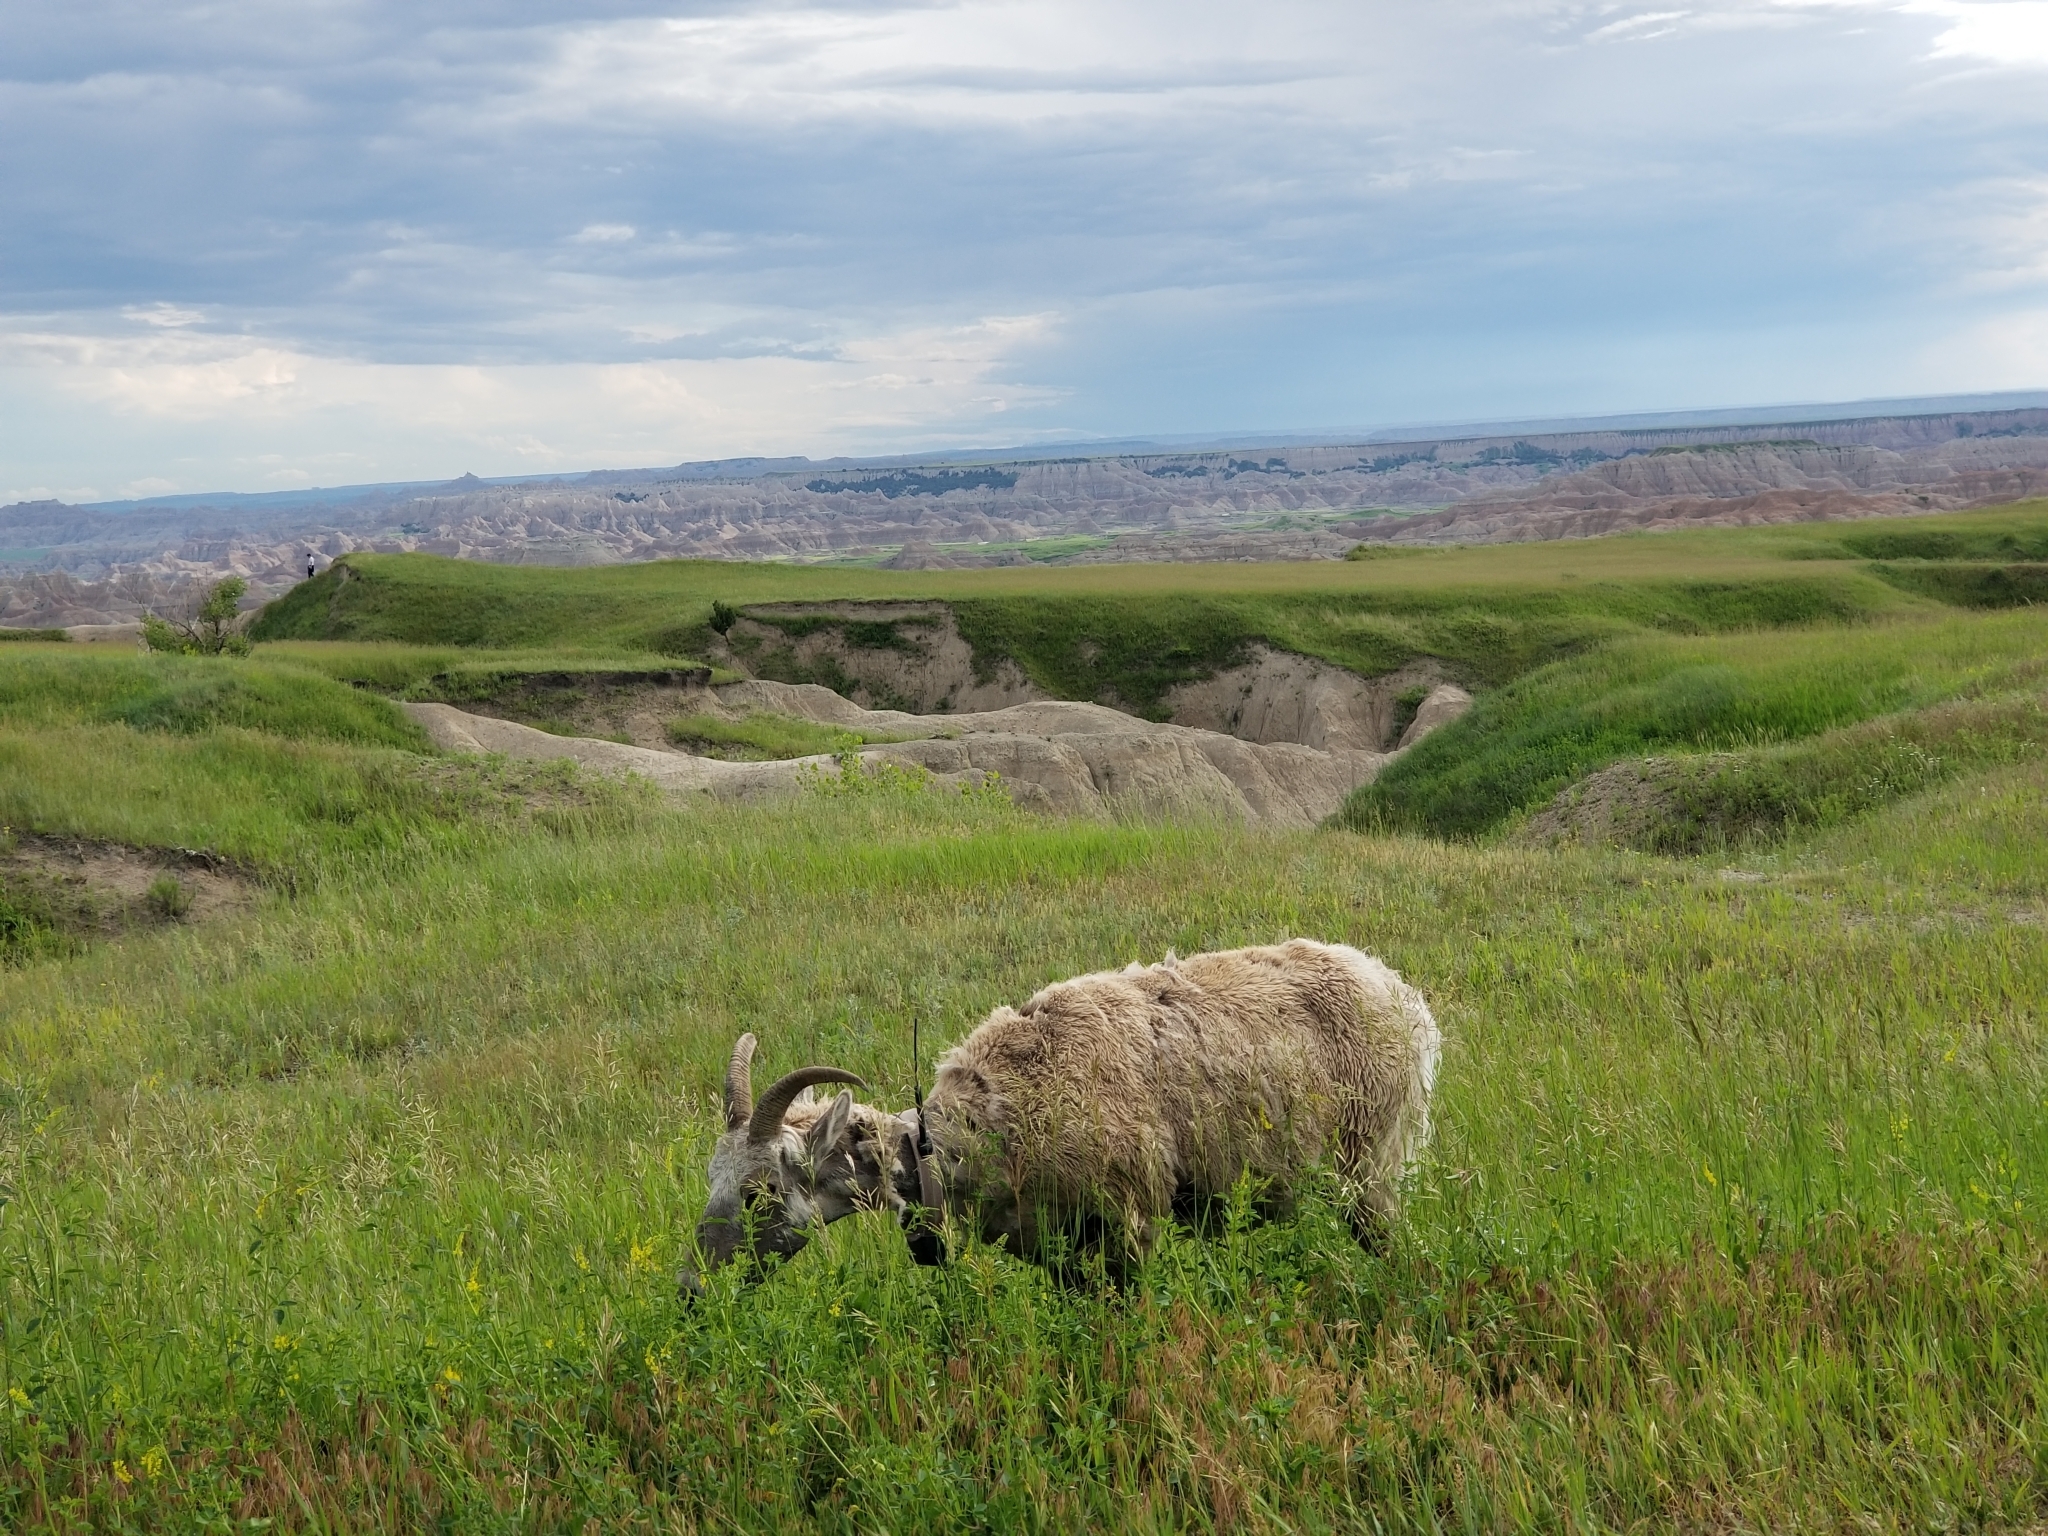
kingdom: Animalia
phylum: Chordata
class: Mammalia
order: Artiodactyla
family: Bovidae
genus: Ovis
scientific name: Ovis canadensis
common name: Bighorn sheep
